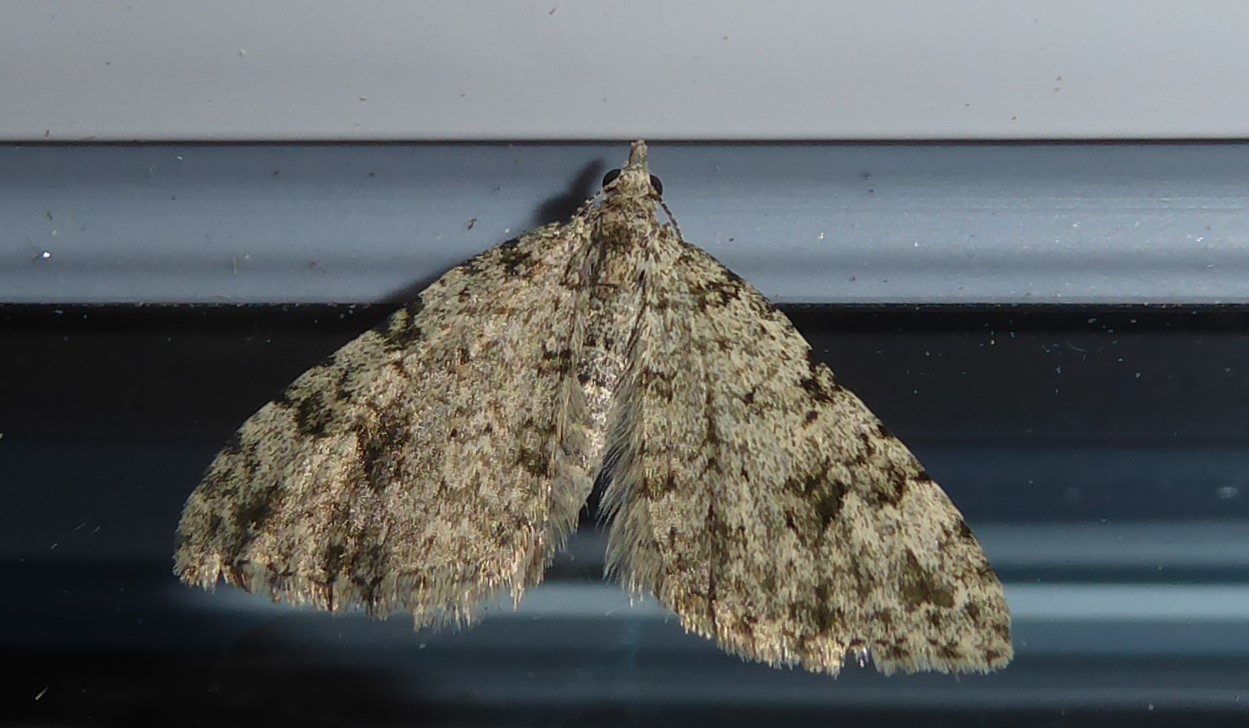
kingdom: Animalia
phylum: Arthropoda
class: Insecta
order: Lepidoptera
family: Geometridae
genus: Helastia
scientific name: Helastia cinerearia
